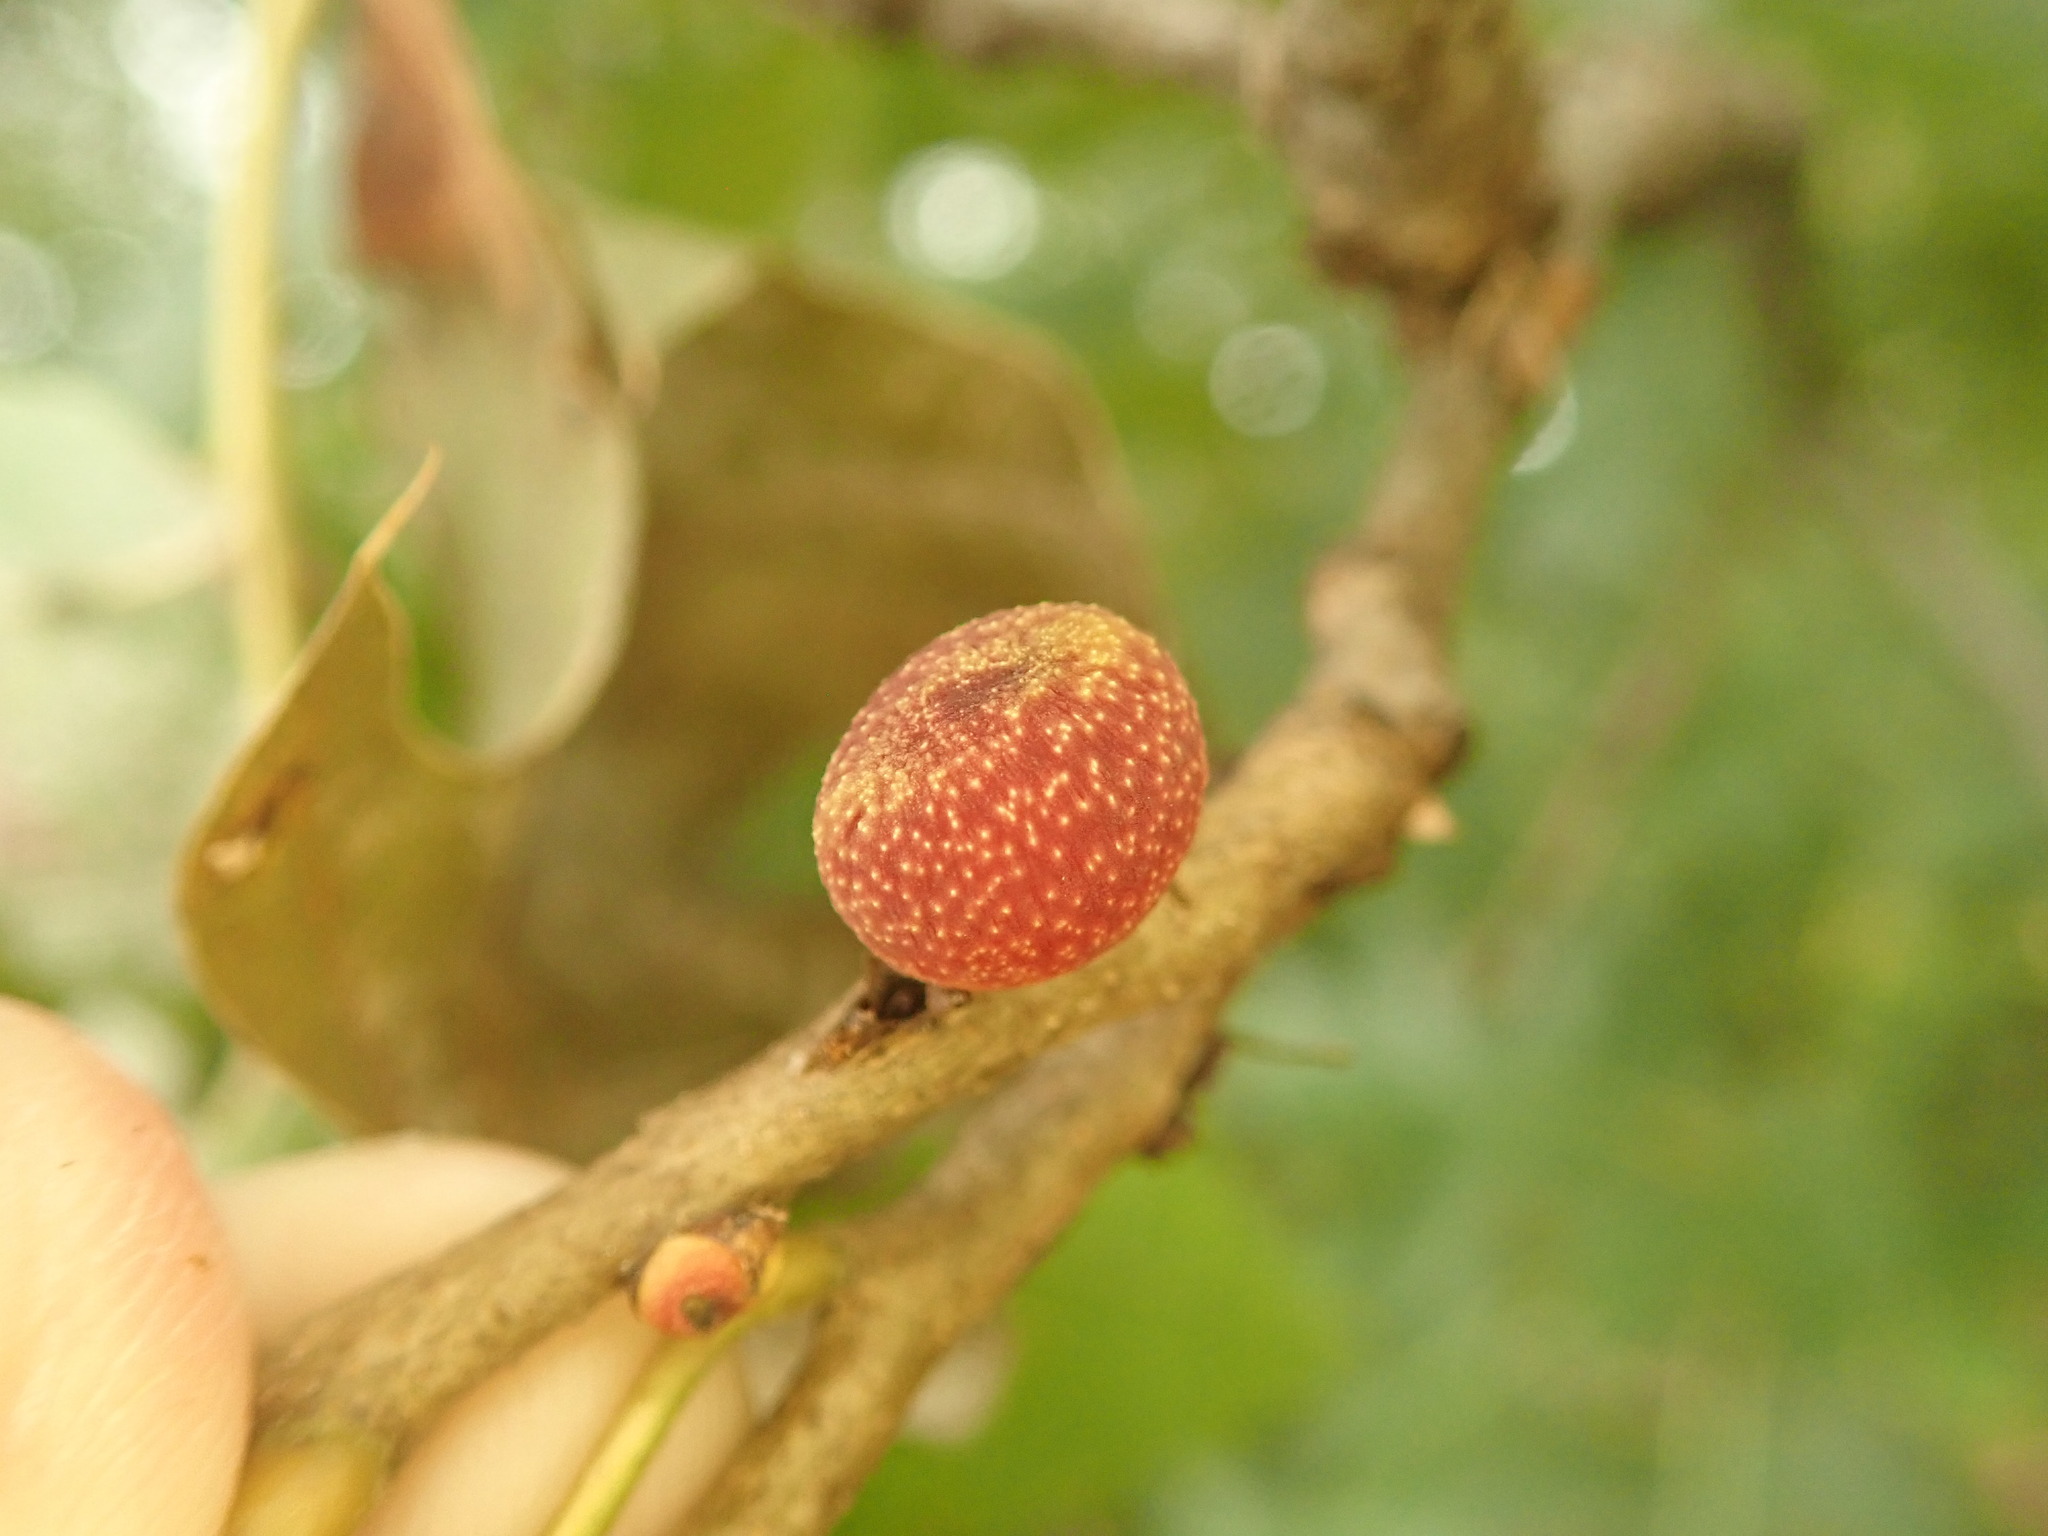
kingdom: Animalia
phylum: Arthropoda
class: Insecta
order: Hymenoptera
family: Cynipidae
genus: Kokkocynips
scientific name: Kokkocynips imbricariae
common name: Banded bullet gall wasp
